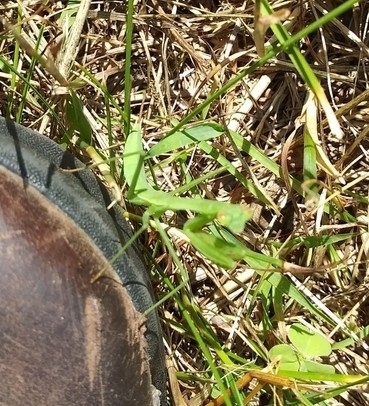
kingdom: Animalia
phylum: Arthropoda
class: Insecta
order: Mantodea
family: Mantidae
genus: Tenodera
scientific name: Tenodera sinensis
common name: Chinese mantis
